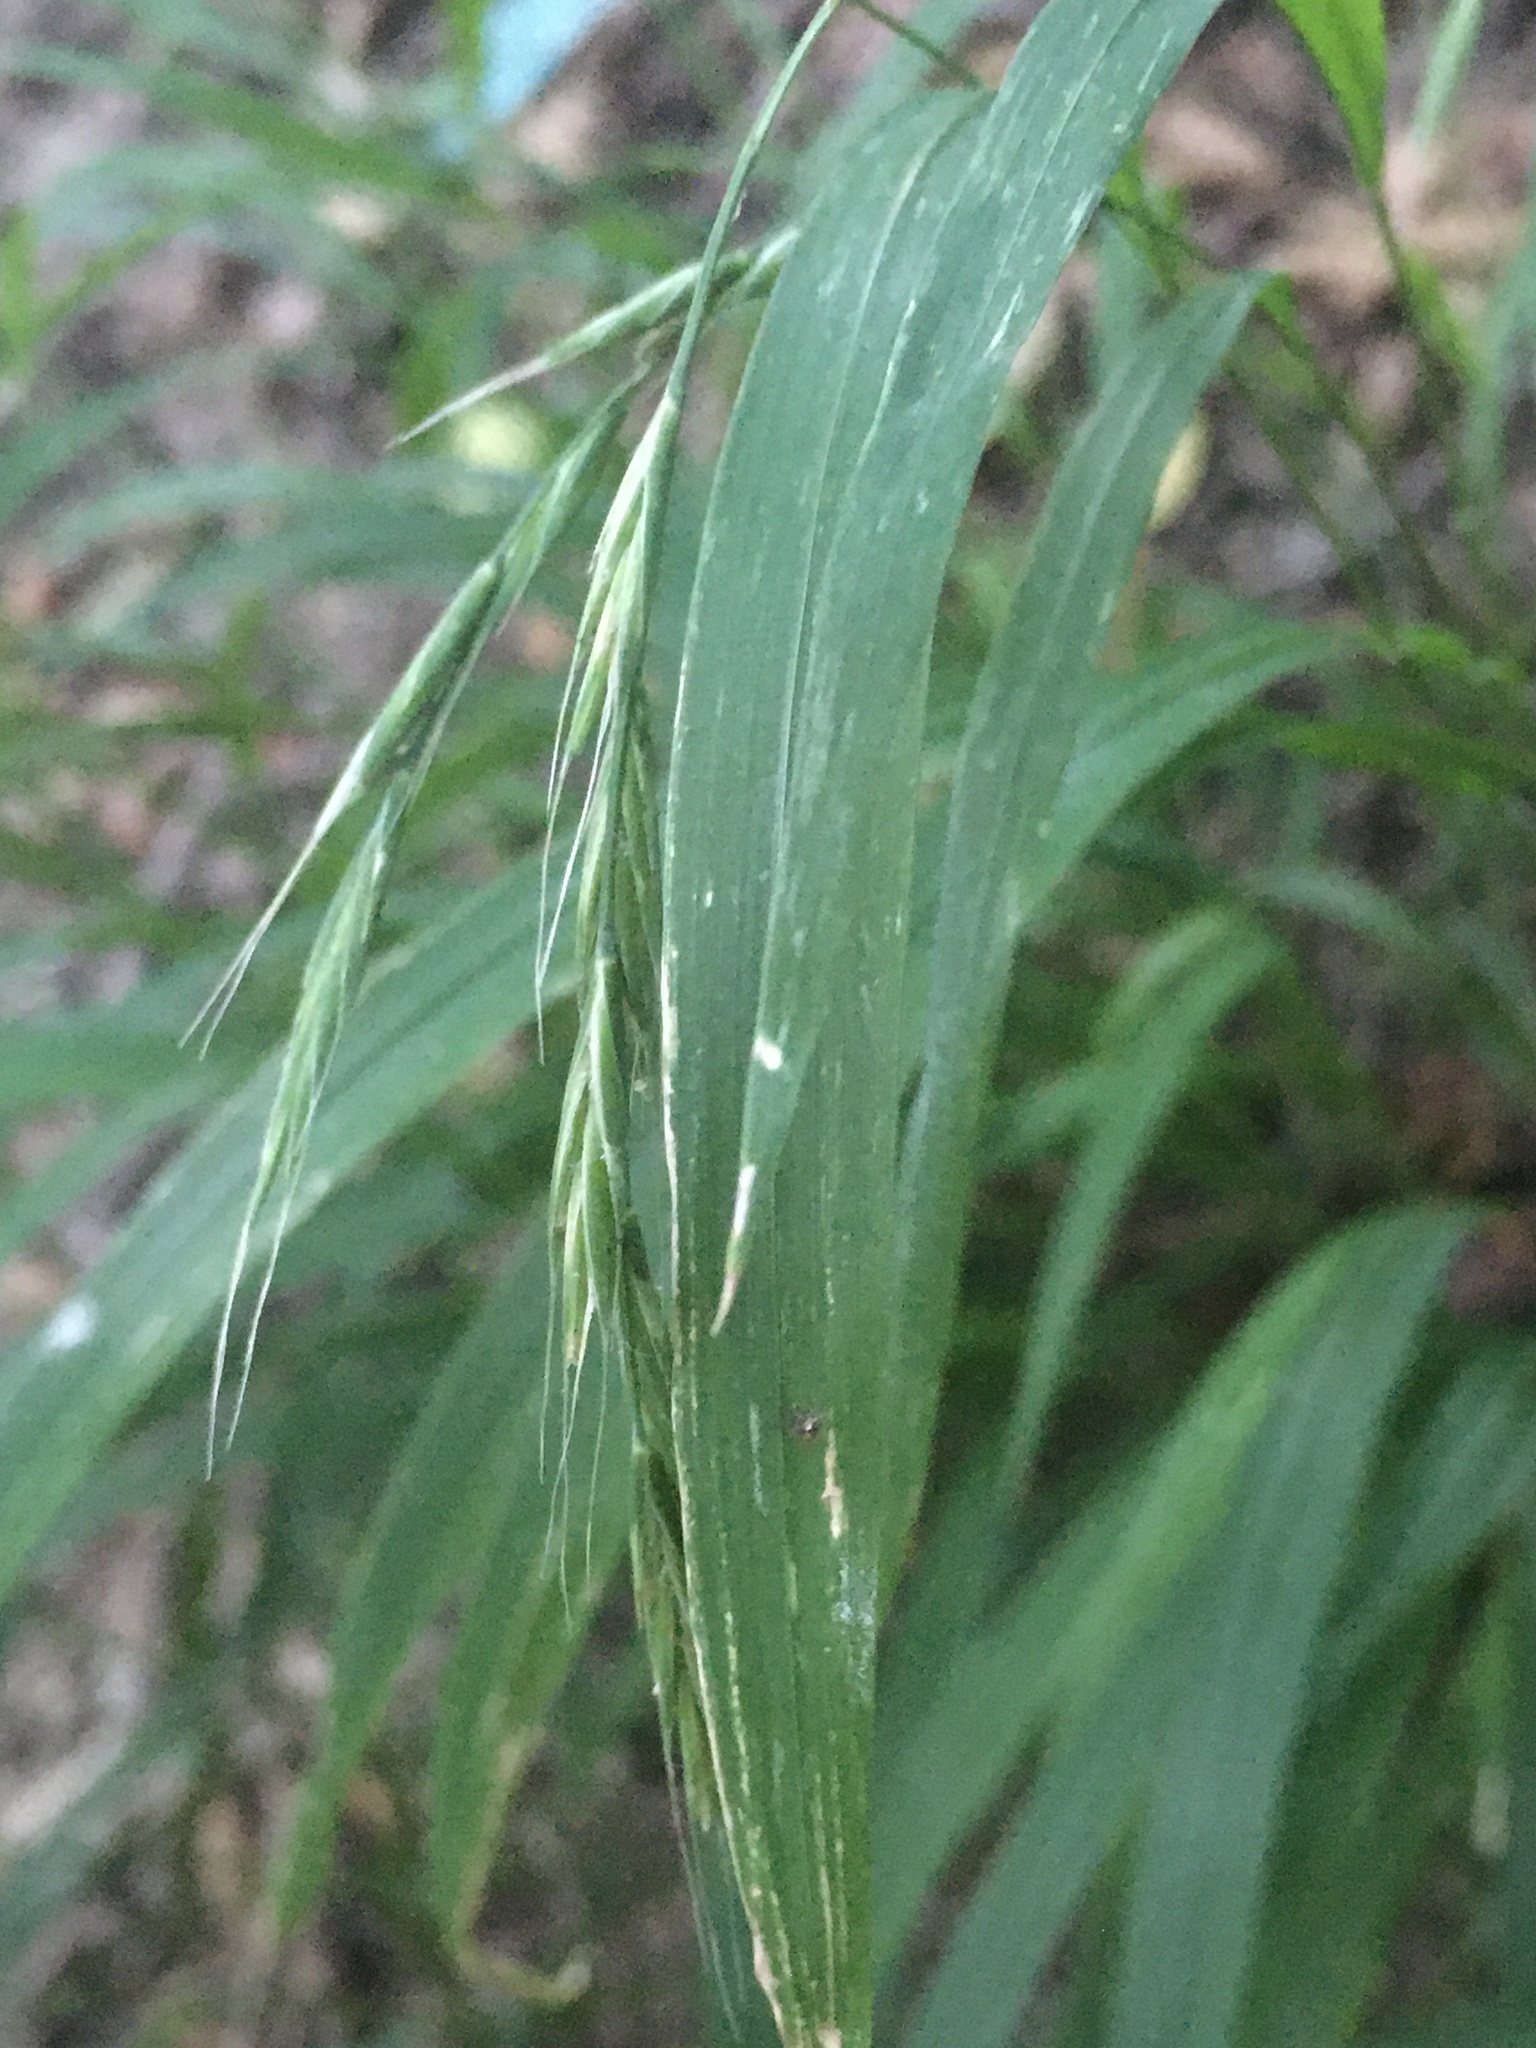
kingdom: Plantae
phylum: Tracheophyta
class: Liliopsida
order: Poales
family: Poaceae
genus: Brachypodium
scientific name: Brachypodium sylvaticum
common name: False-brome
